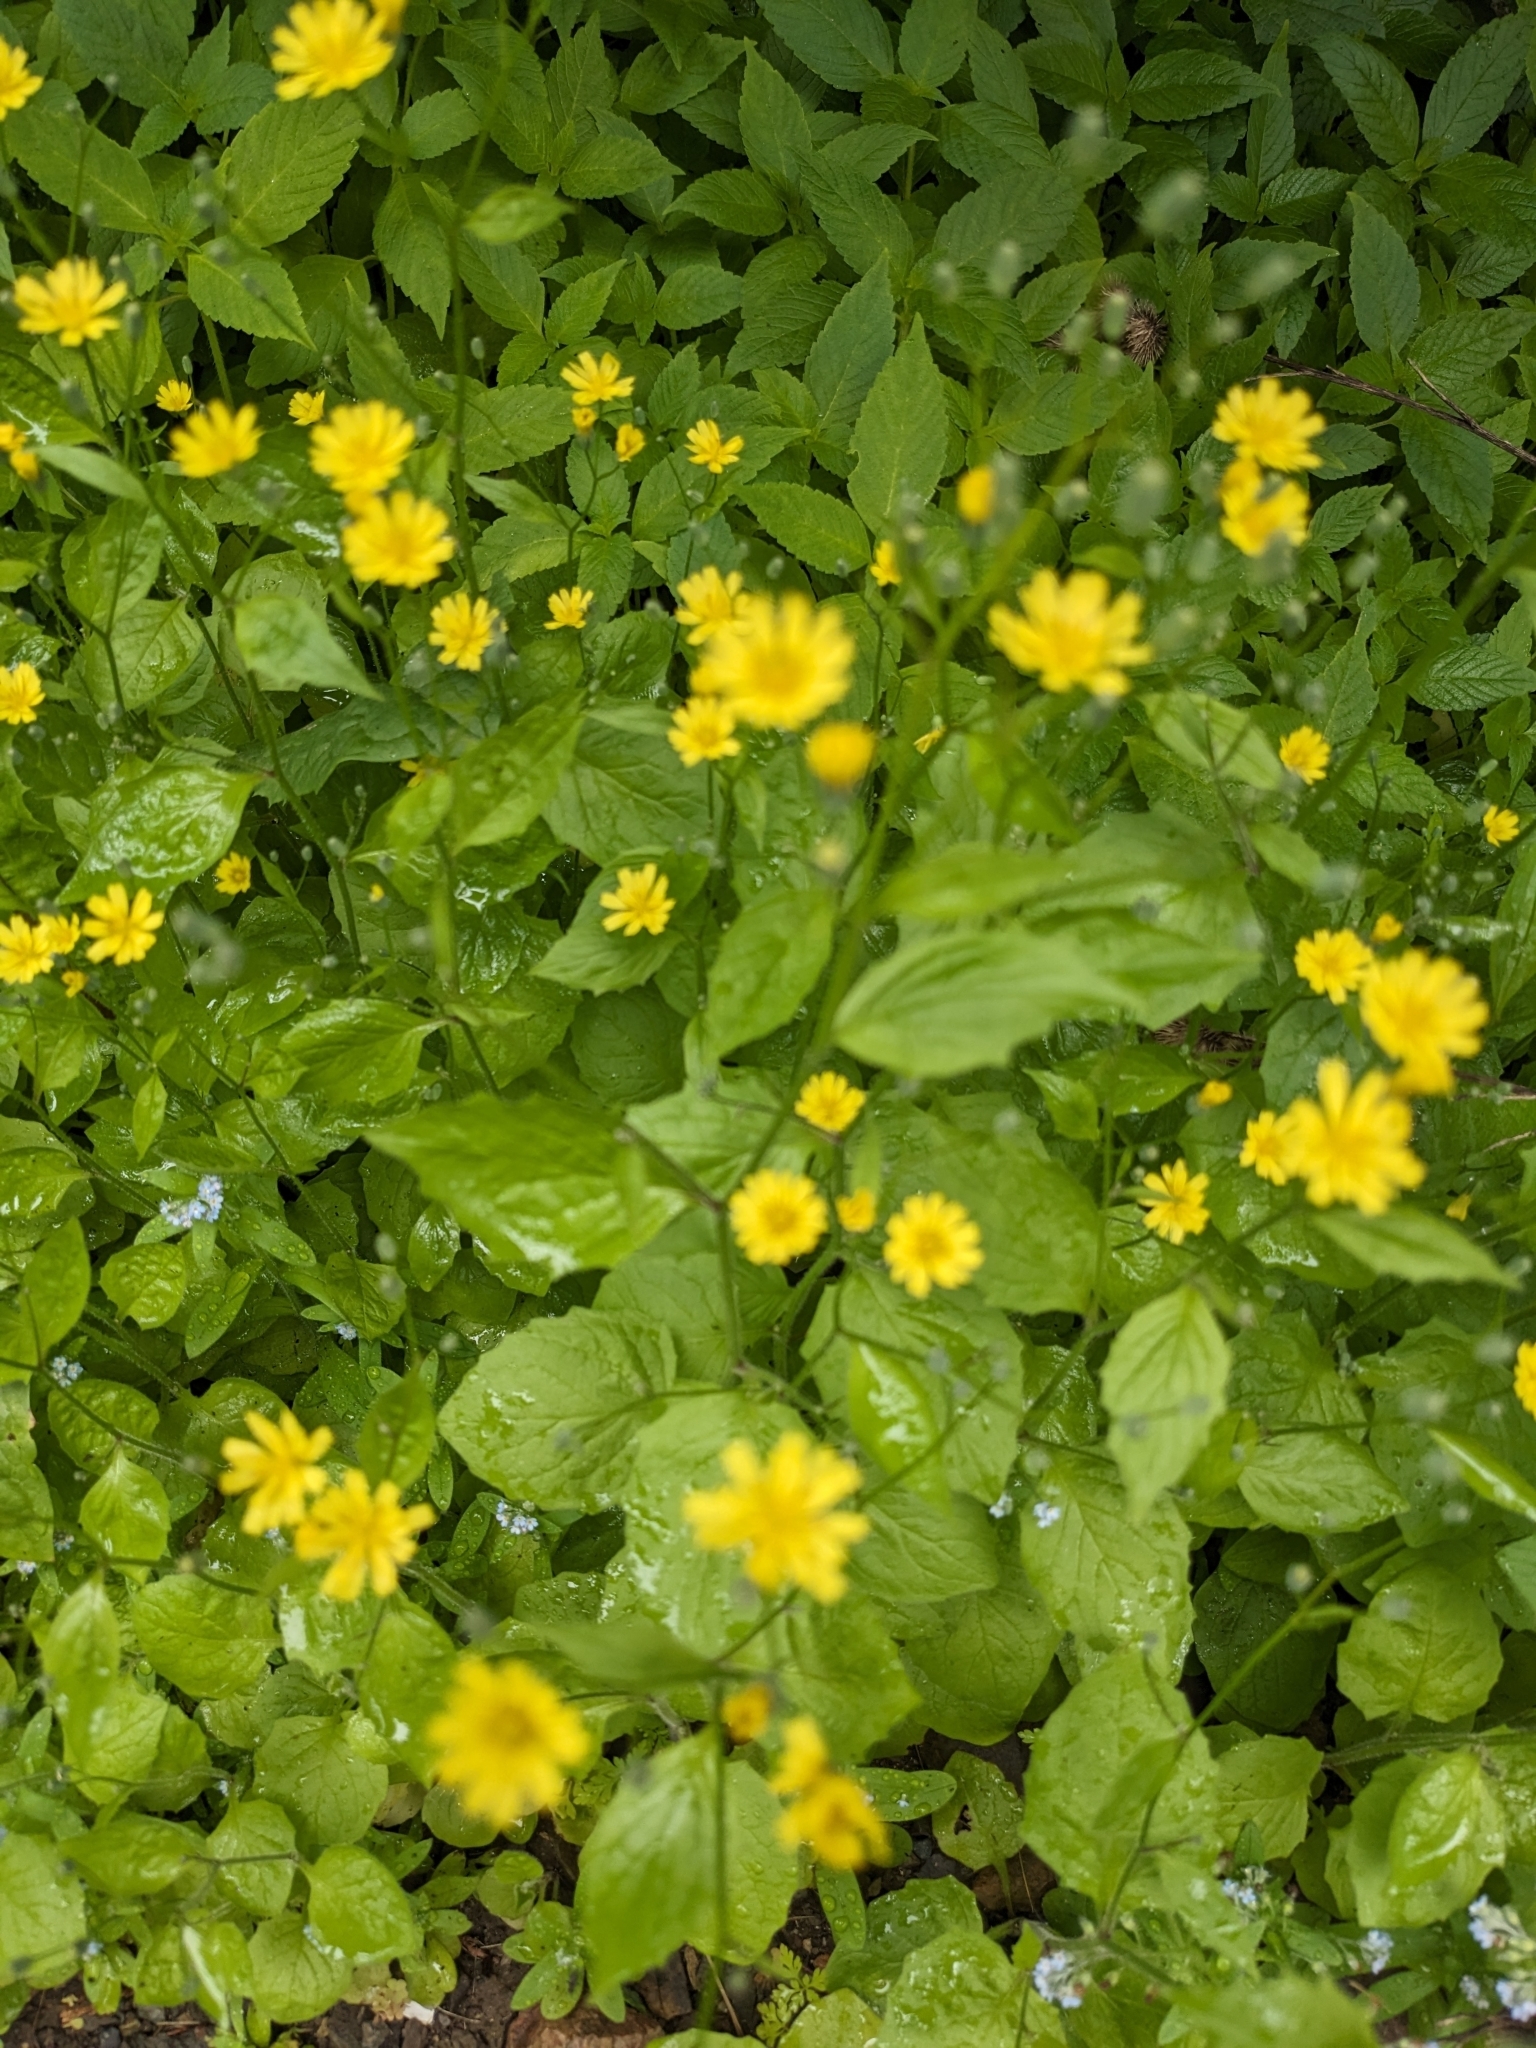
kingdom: Plantae
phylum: Tracheophyta
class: Magnoliopsida
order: Asterales
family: Asteraceae
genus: Lapsana
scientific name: Lapsana communis
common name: Nipplewort
